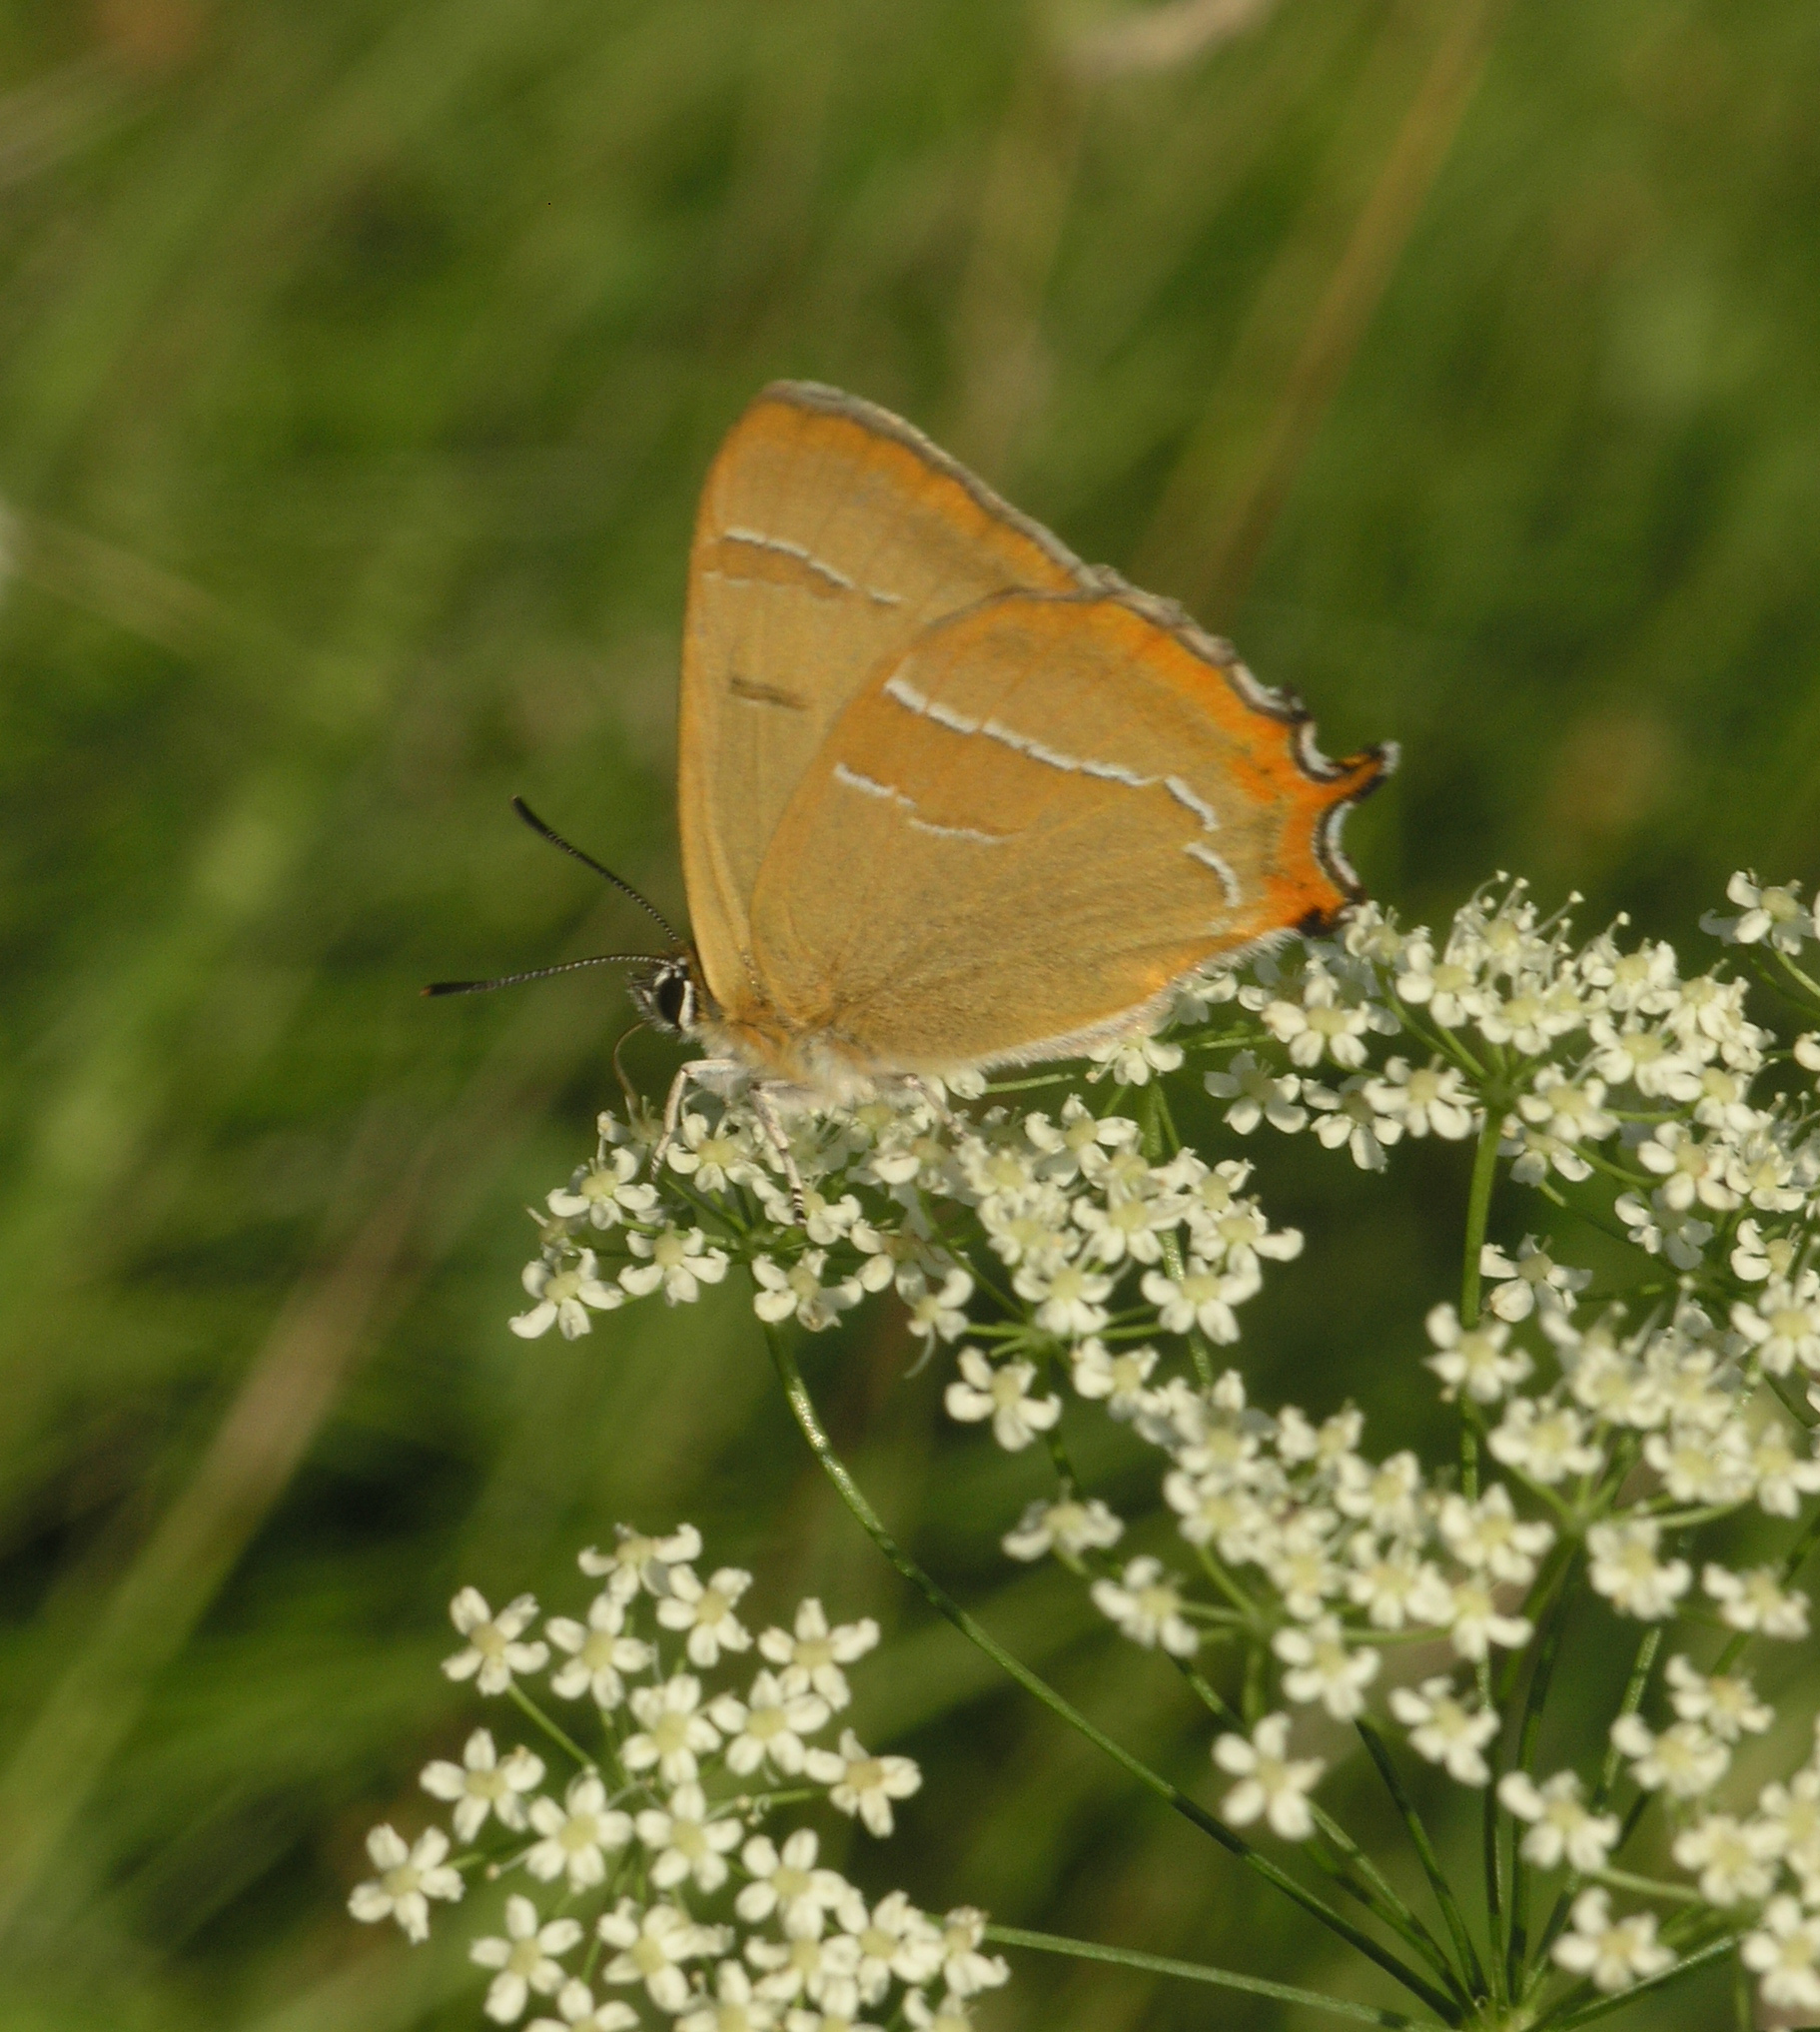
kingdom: Plantae
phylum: Tracheophyta
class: Magnoliopsida
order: Apiales
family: Apiaceae
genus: Pimpinella
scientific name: Pimpinella saxifraga
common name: Burnet-saxifrage
